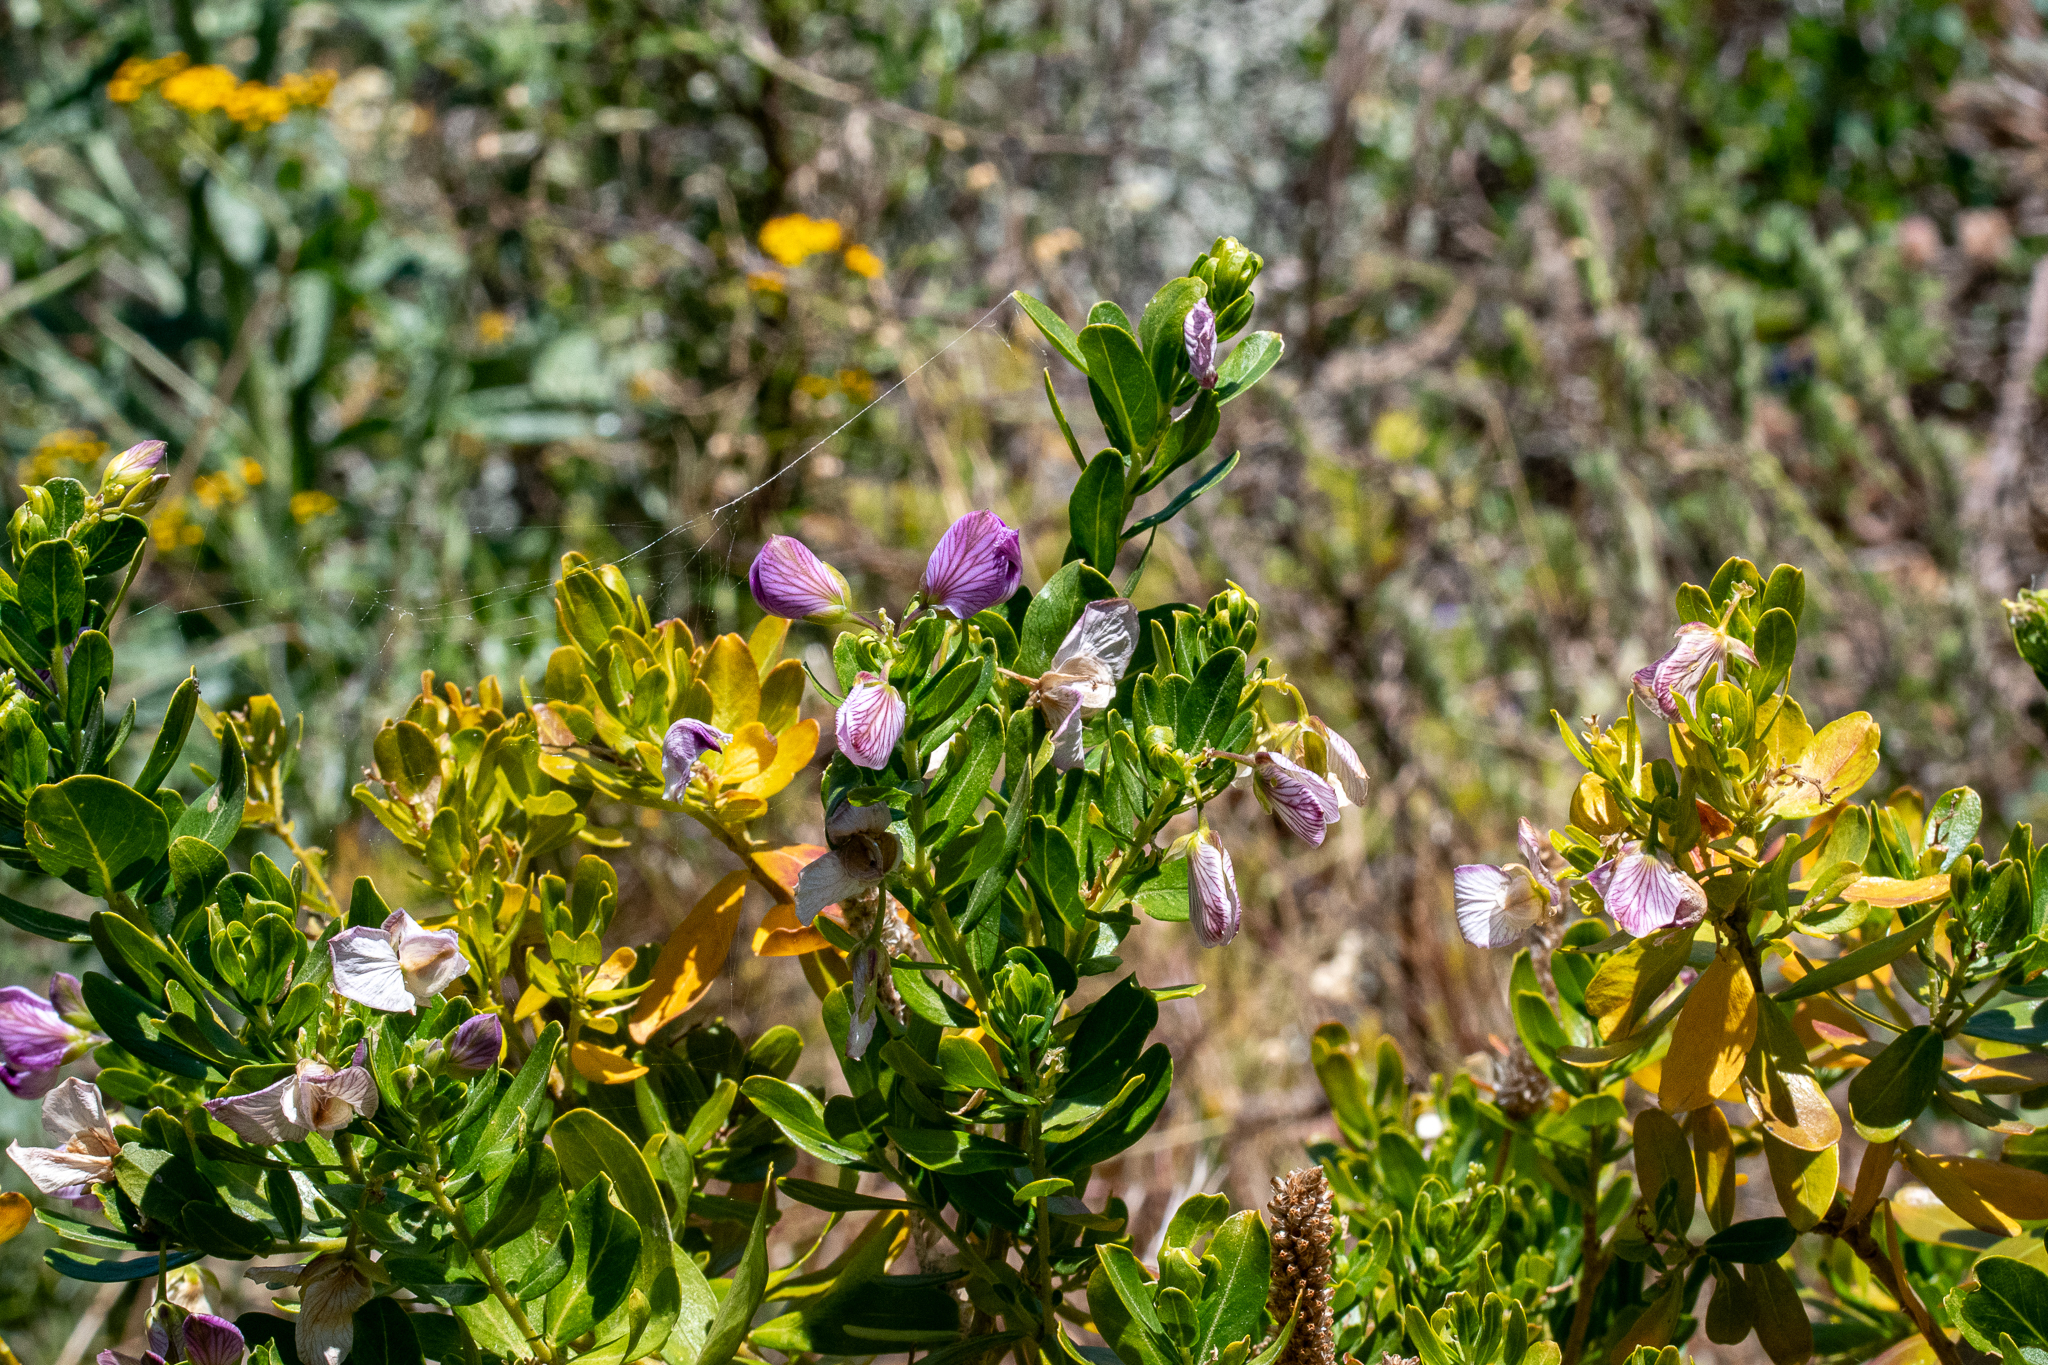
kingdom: Plantae
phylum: Tracheophyta
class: Magnoliopsida
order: Fabales
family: Polygalaceae
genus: Polygala
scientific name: Polygala myrtifolia
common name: Myrtle-leaf milkwort
